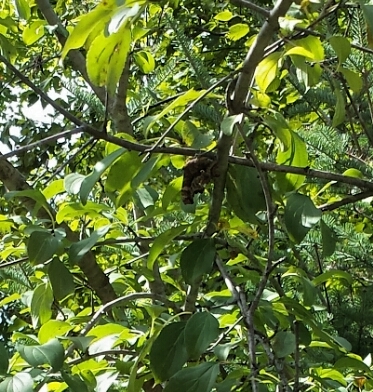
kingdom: Animalia
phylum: Arthropoda
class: Insecta
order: Lepidoptera
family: Nymphalidae
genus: Polygonia
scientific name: Polygonia comma
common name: Eastern comma
